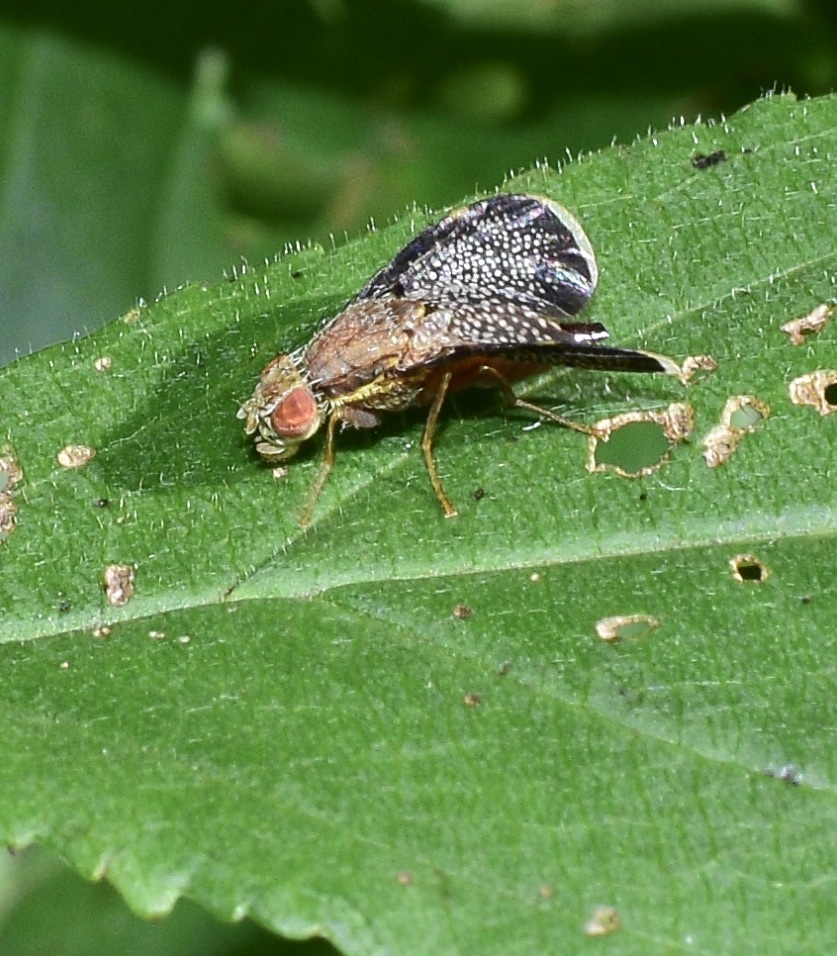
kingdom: Animalia
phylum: Arthropoda
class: Insecta
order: Diptera
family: Tephritidae
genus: Eutreta
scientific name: Eutreta novaeboracensis
